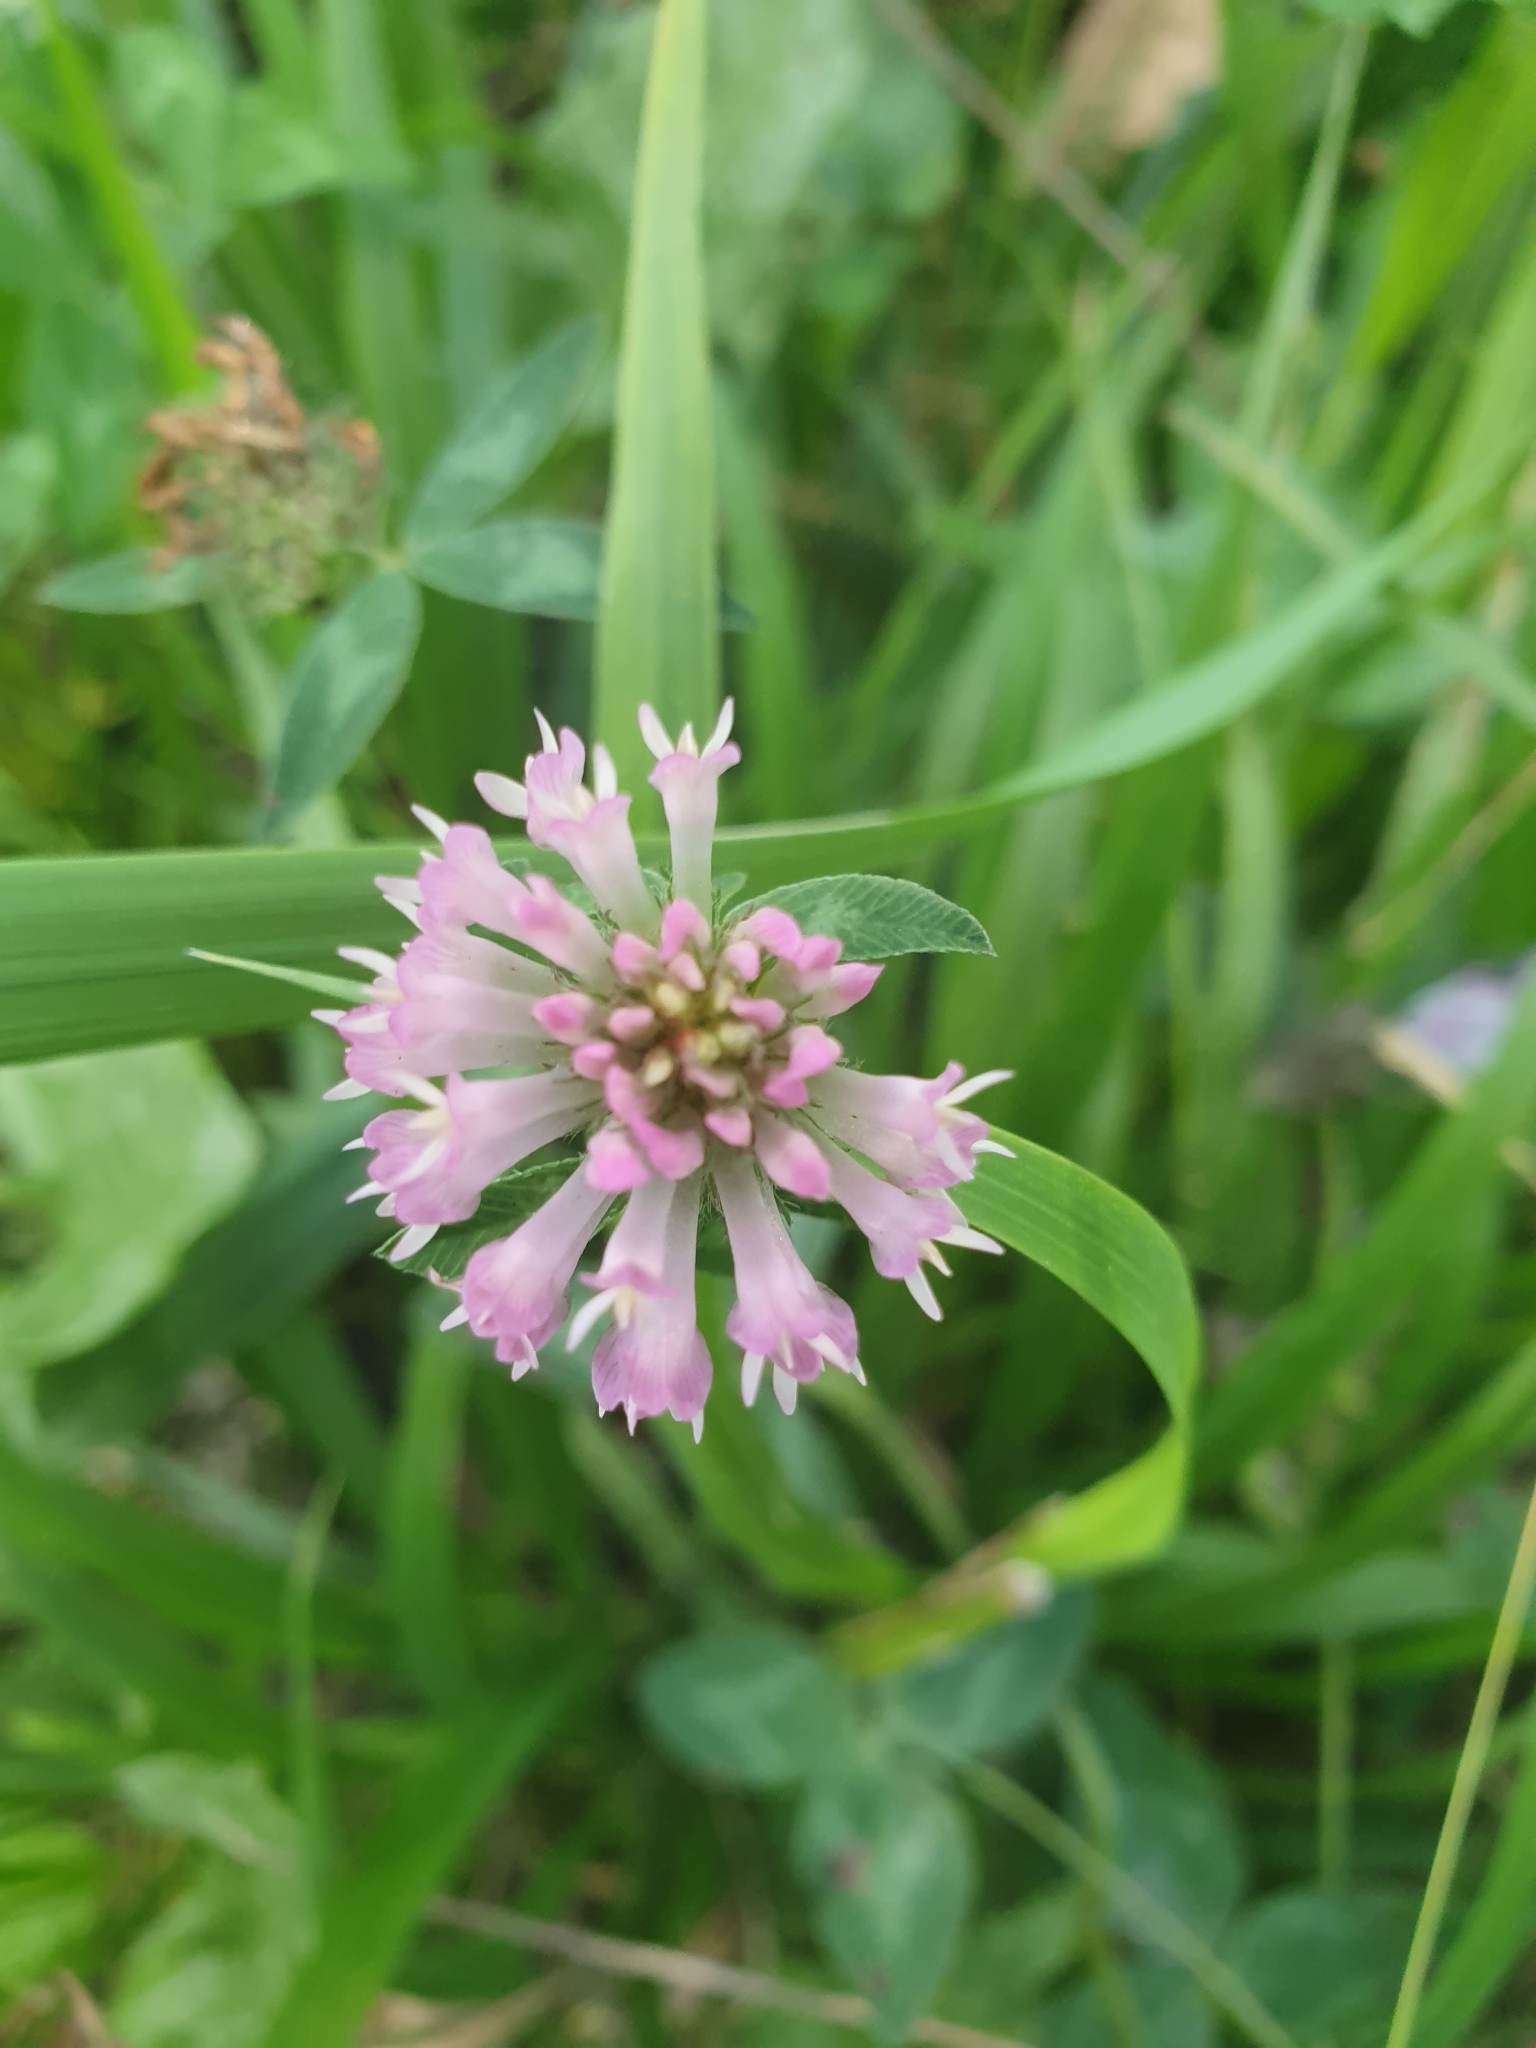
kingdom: Plantae
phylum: Tracheophyta
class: Magnoliopsida
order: Fabales
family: Fabaceae
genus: Trifolium
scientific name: Trifolium pratense
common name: Red clover
